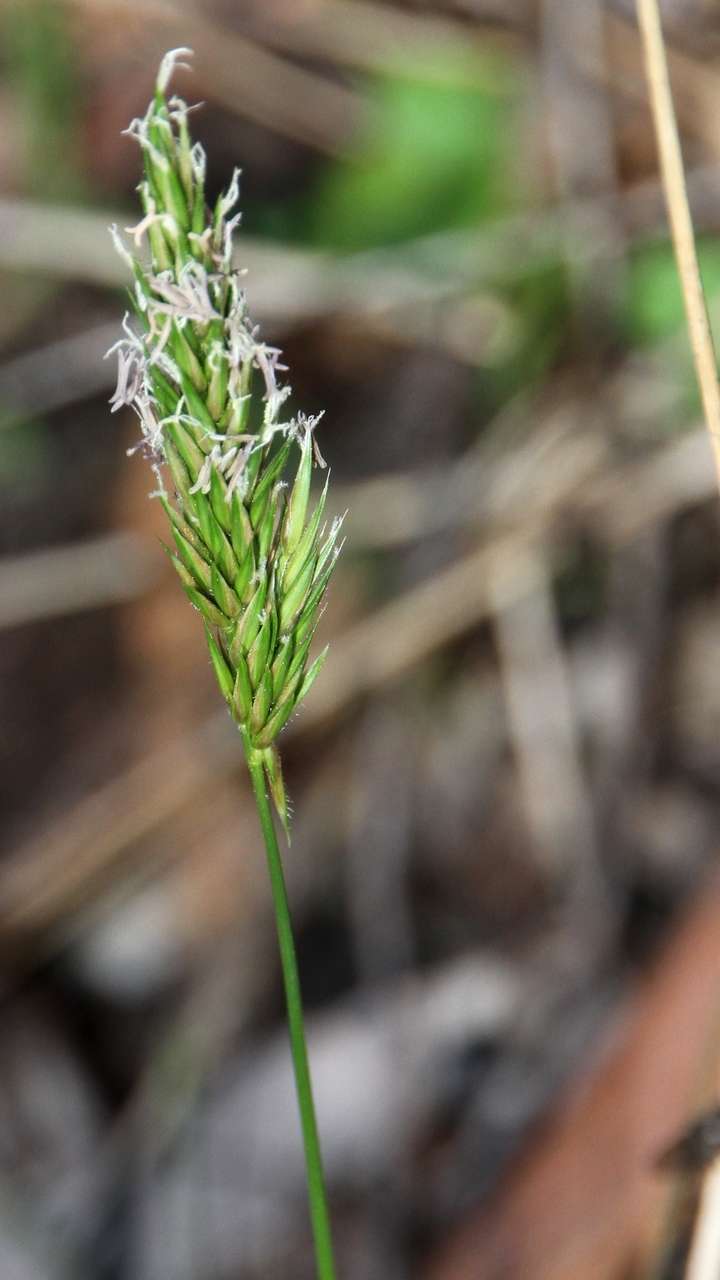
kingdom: Plantae
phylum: Tracheophyta
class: Liliopsida
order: Poales
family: Poaceae
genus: Anthoxanthum
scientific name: Anthoxanthum odoratum
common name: Sweet vernalgrass
